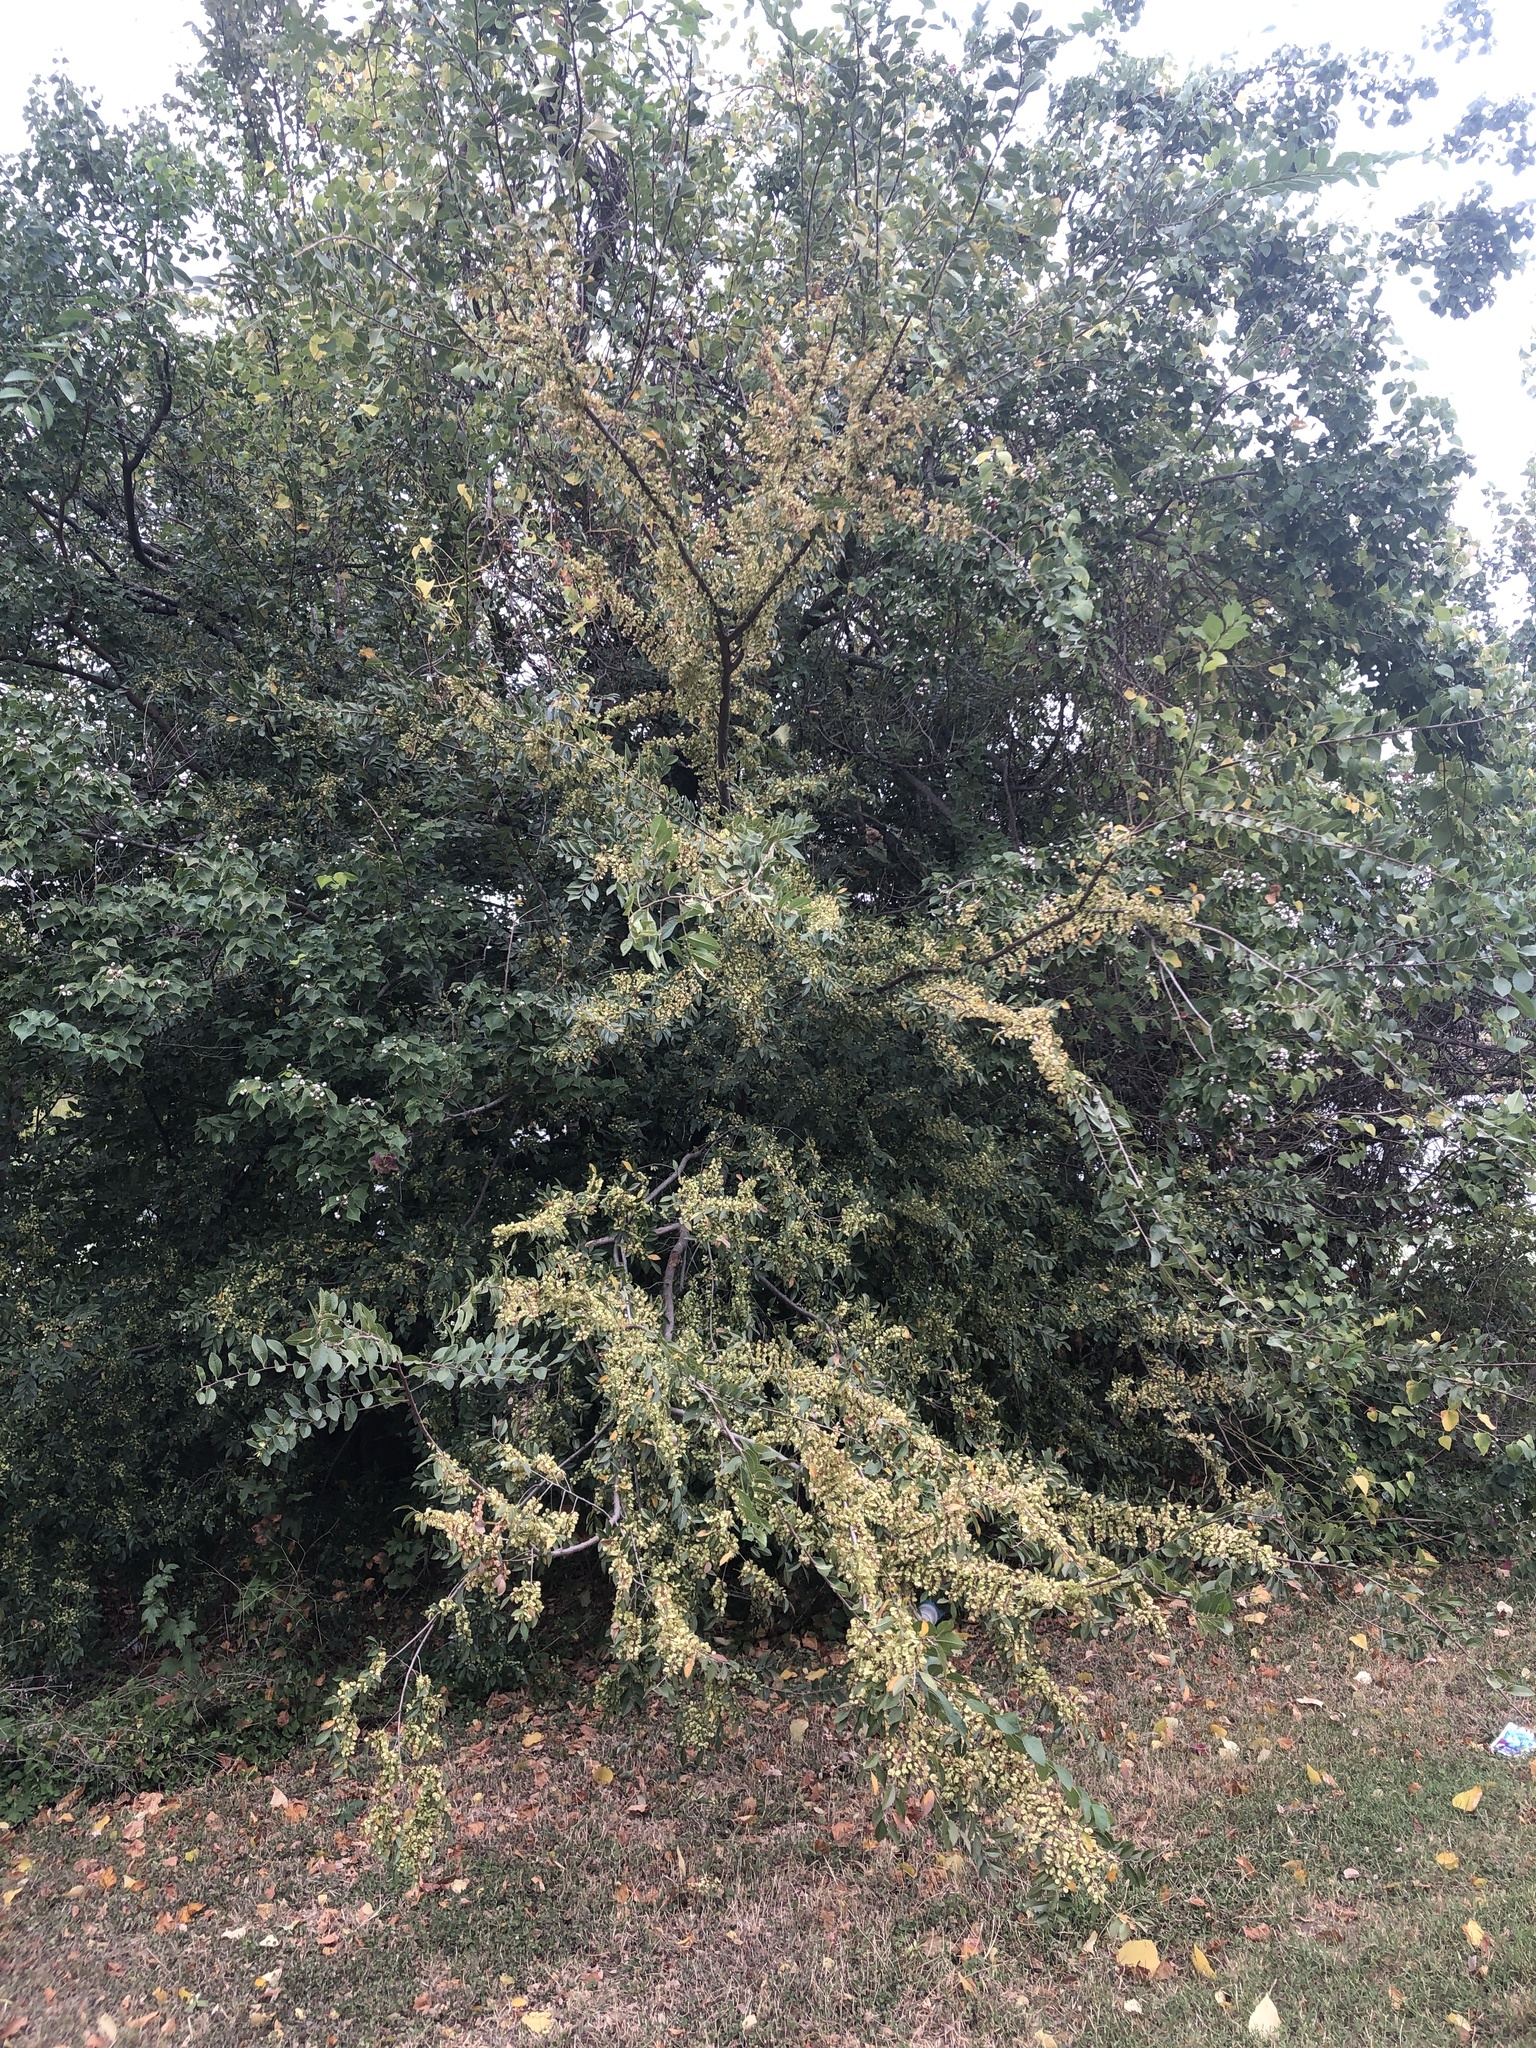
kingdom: Plantae
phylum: Tracheophyta
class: Magnoliopsida
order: Rosales
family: Ulmaceae
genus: Ulmus
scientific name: Ulmus parvifolia
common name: Chinese elm
